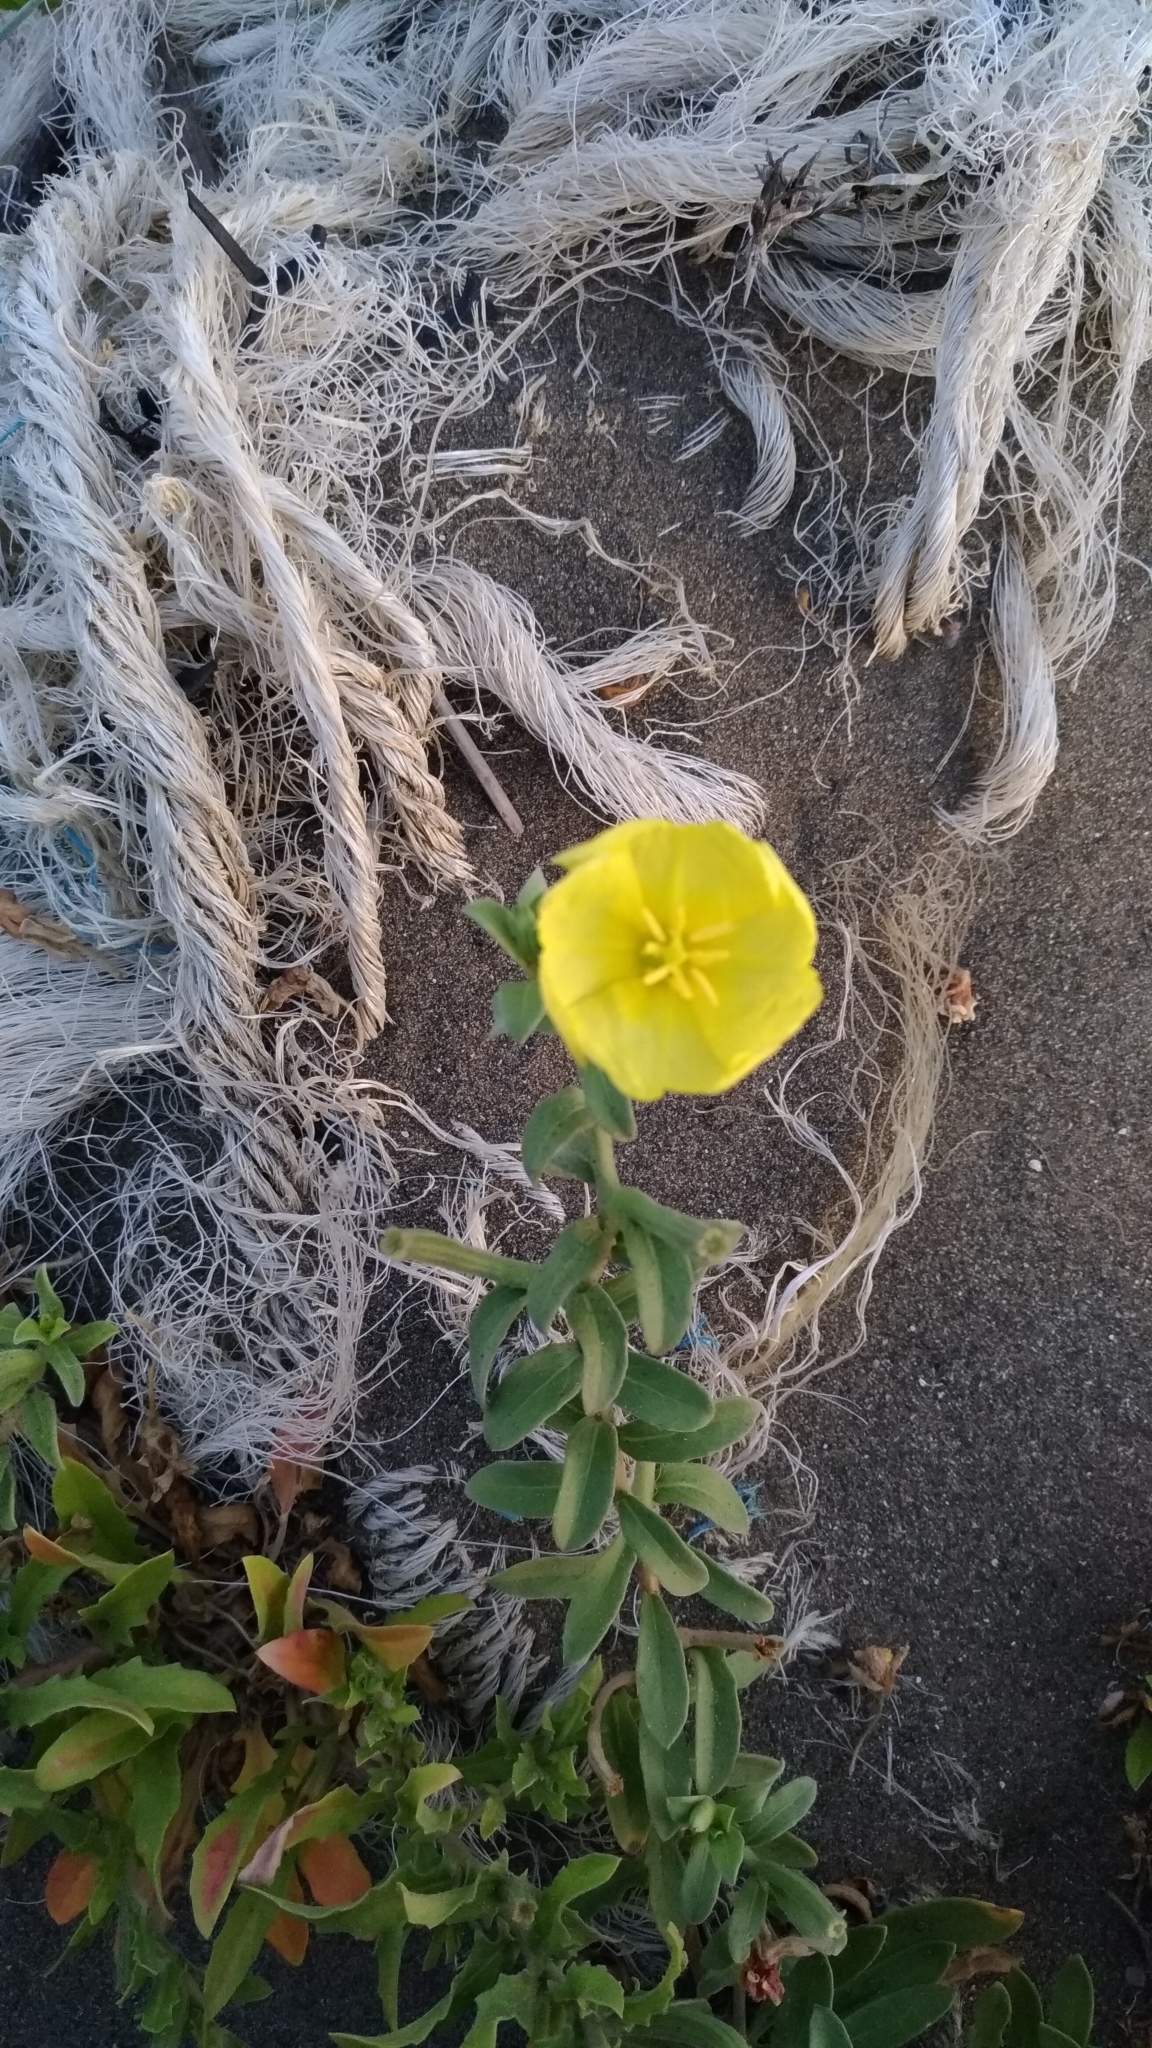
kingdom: Plantae
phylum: Tracheophyta
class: Magnoliopsida
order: Myrtales
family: Onagraceae
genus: Oenothera
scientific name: Oenothera drummondii
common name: Beach evening-primrose
